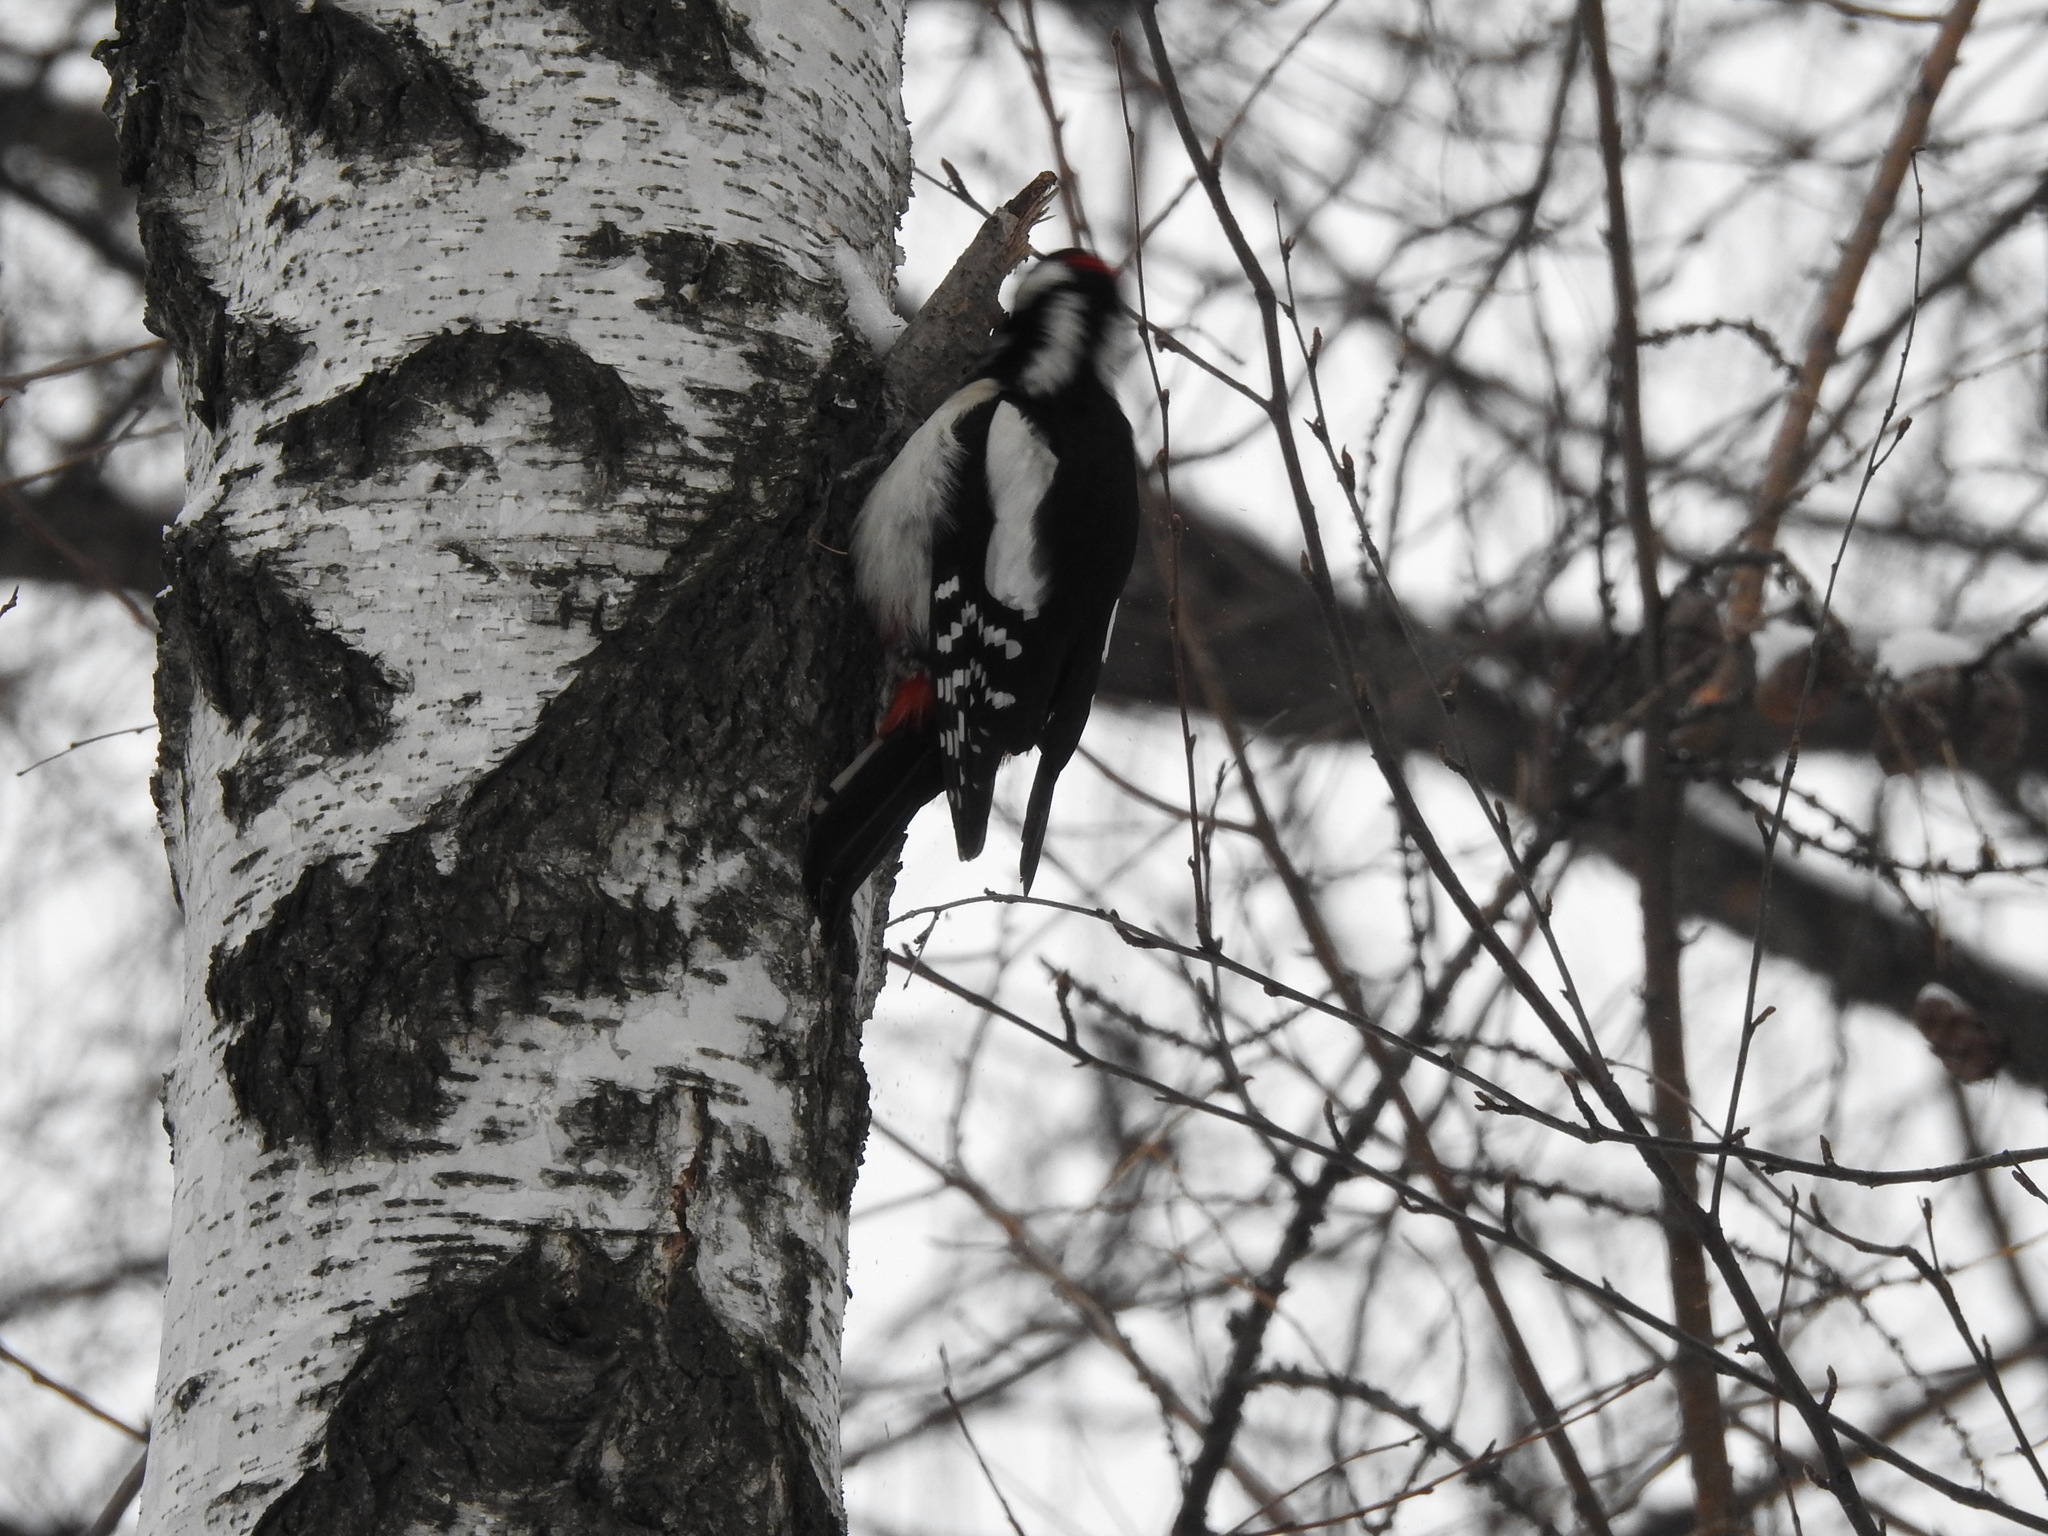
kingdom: Animalia
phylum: Chordata
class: Aves
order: Piciformes
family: Picidae
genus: Dendrocopos
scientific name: Dendrocopos major
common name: Great spotted woodpecker
